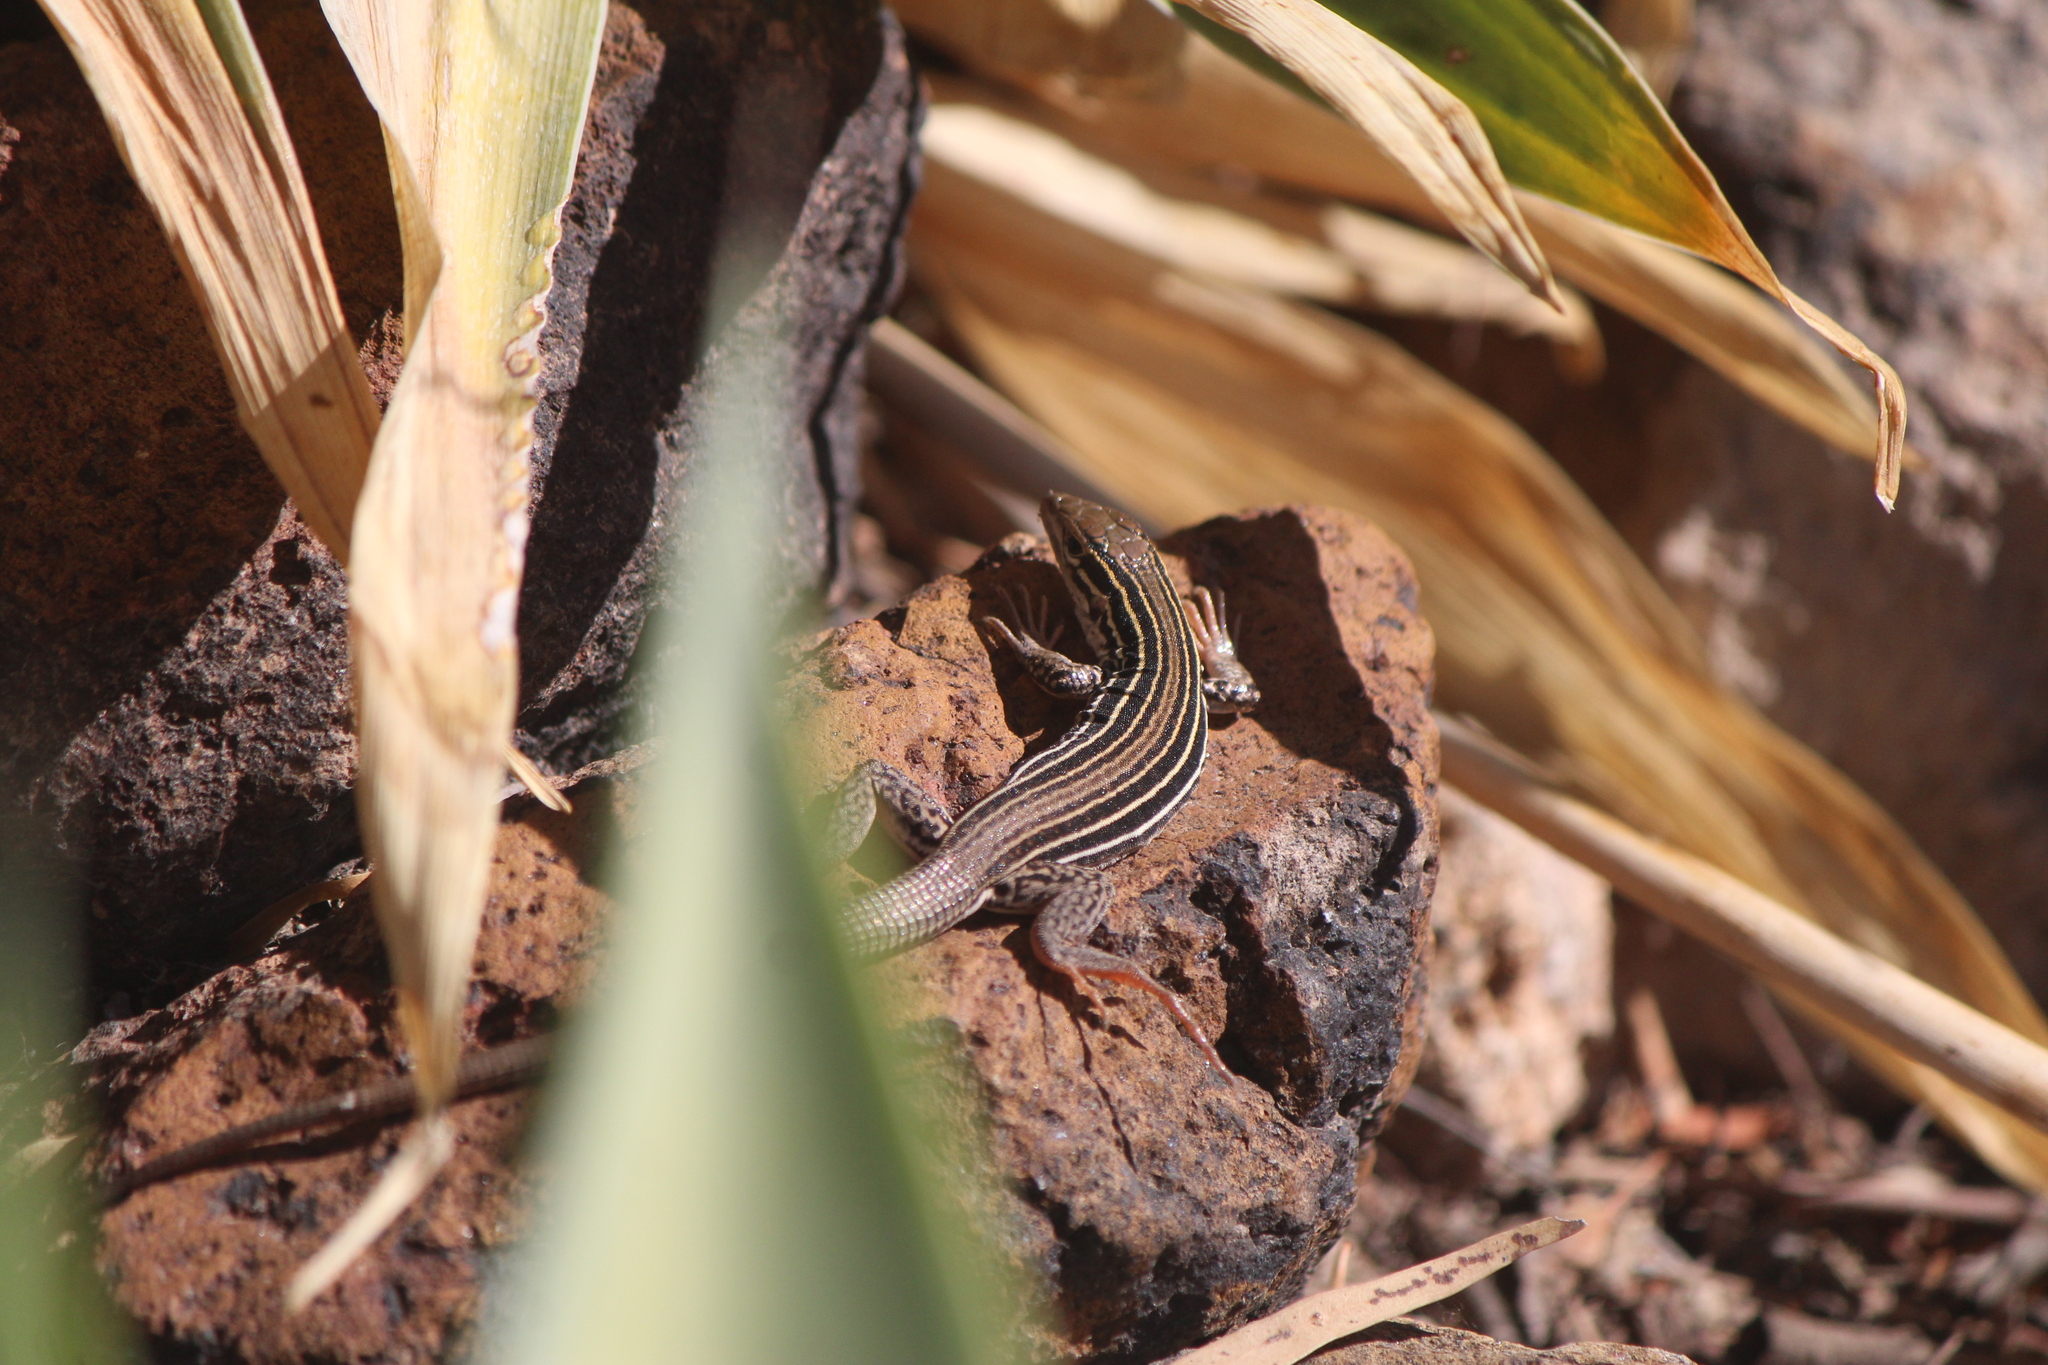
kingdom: Animalia
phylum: Chordata
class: Squamata
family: Teiidae
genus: Aspidoscelis
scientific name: Aspidoscelis gularis
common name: Eastern spotted whiptail
